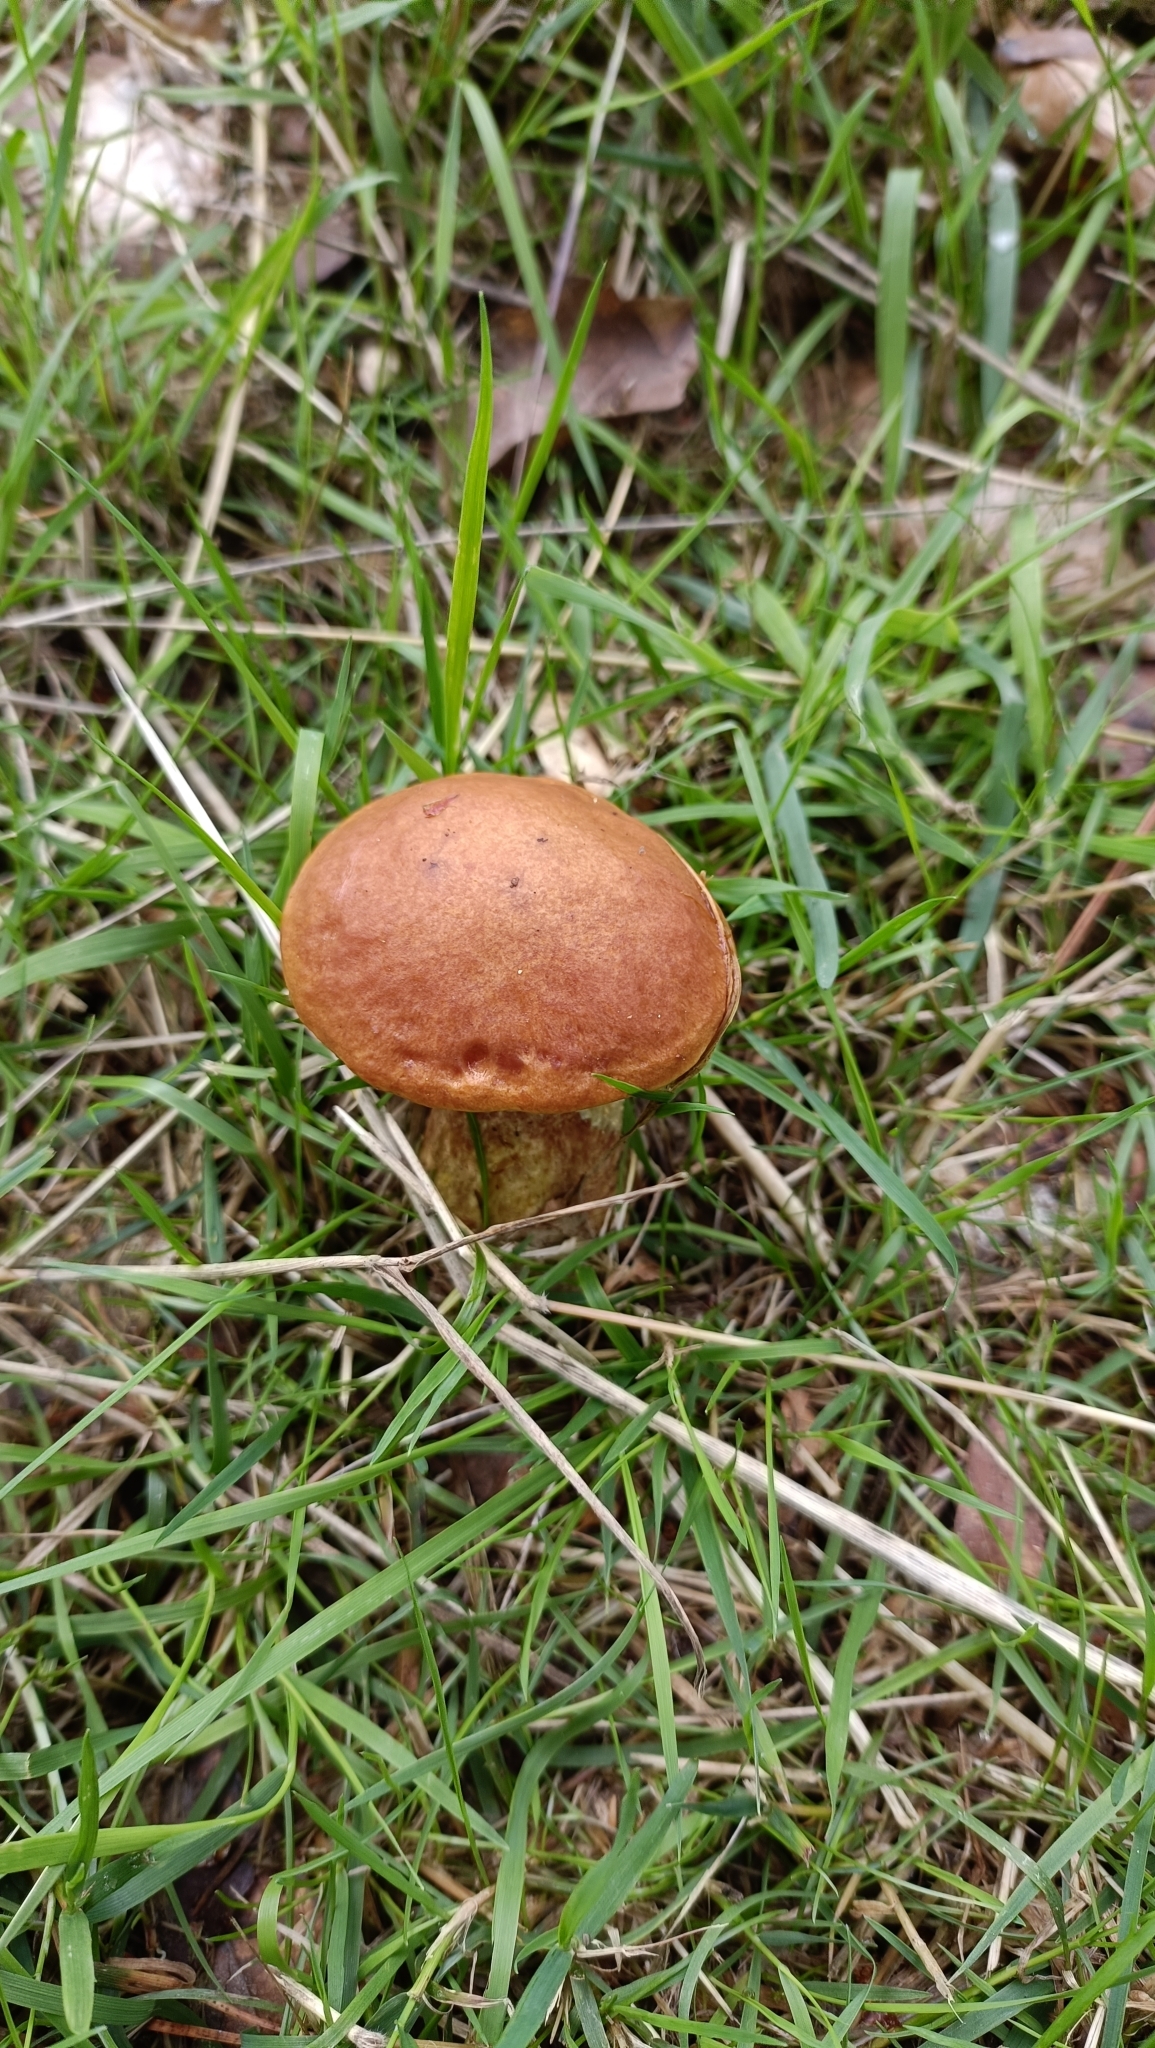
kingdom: Fungi
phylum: Basidiomycota
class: Agaricomycetes
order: Boletales
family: Suillaceae
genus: Suillus
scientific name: Suillus grevillei
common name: Larch bolete
